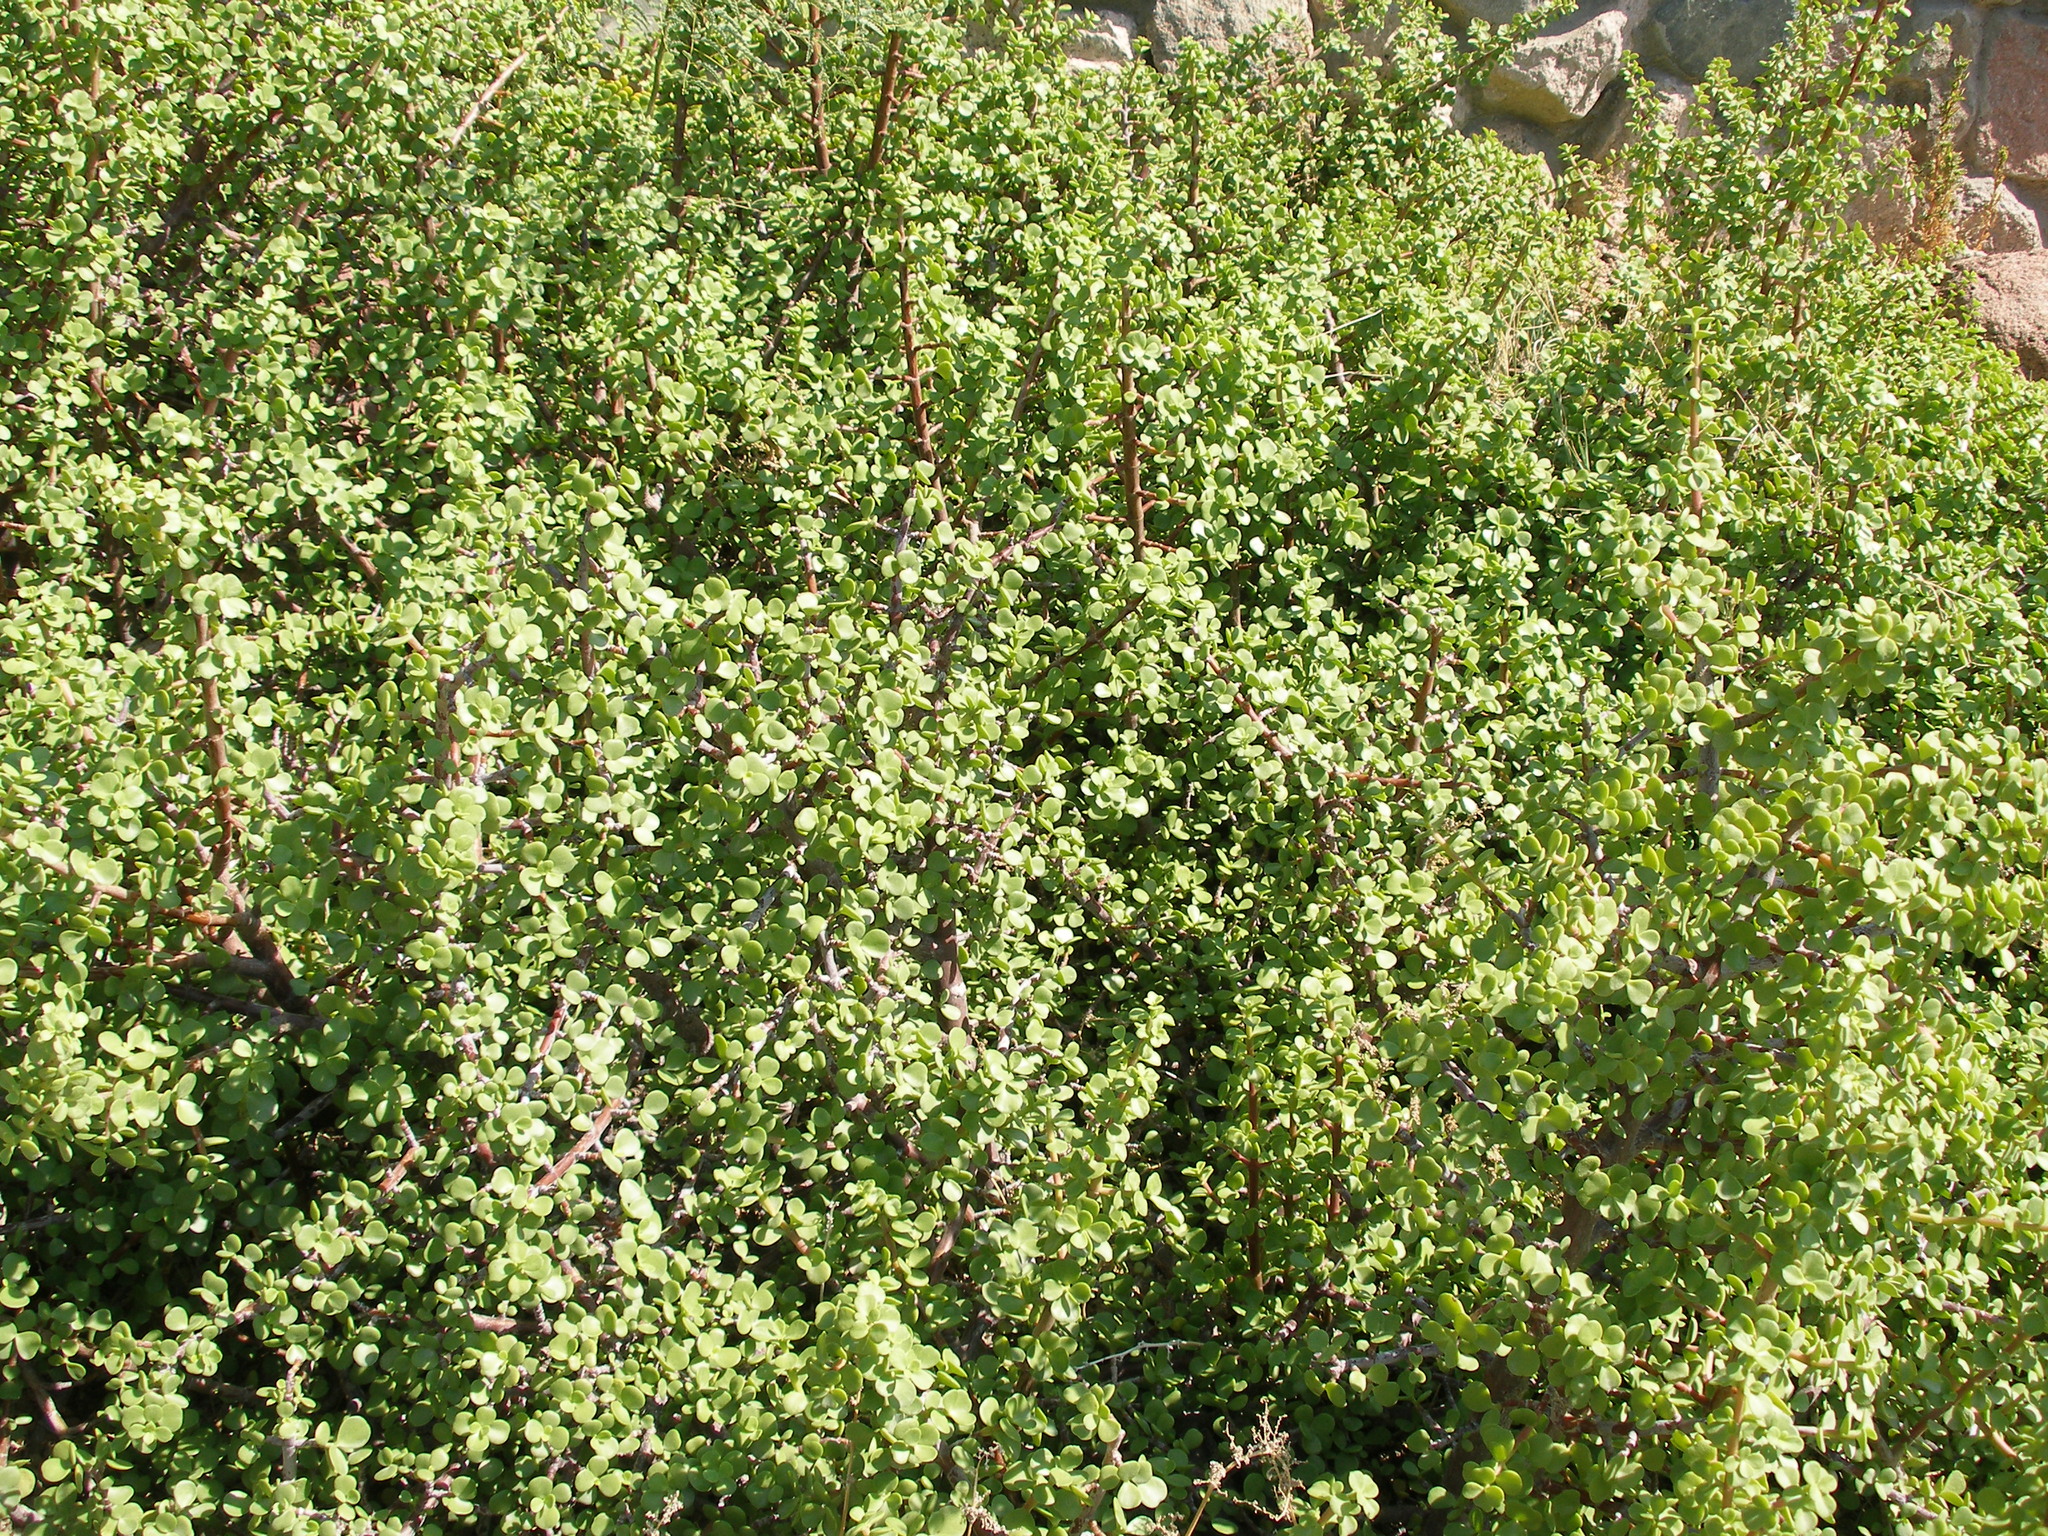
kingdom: Plantae
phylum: Tracheophyta
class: Magnoliopsida
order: Caryophyllales
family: Didiereaceae
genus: Portulacaria
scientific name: Portulacaria afra
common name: Elephant-bush
